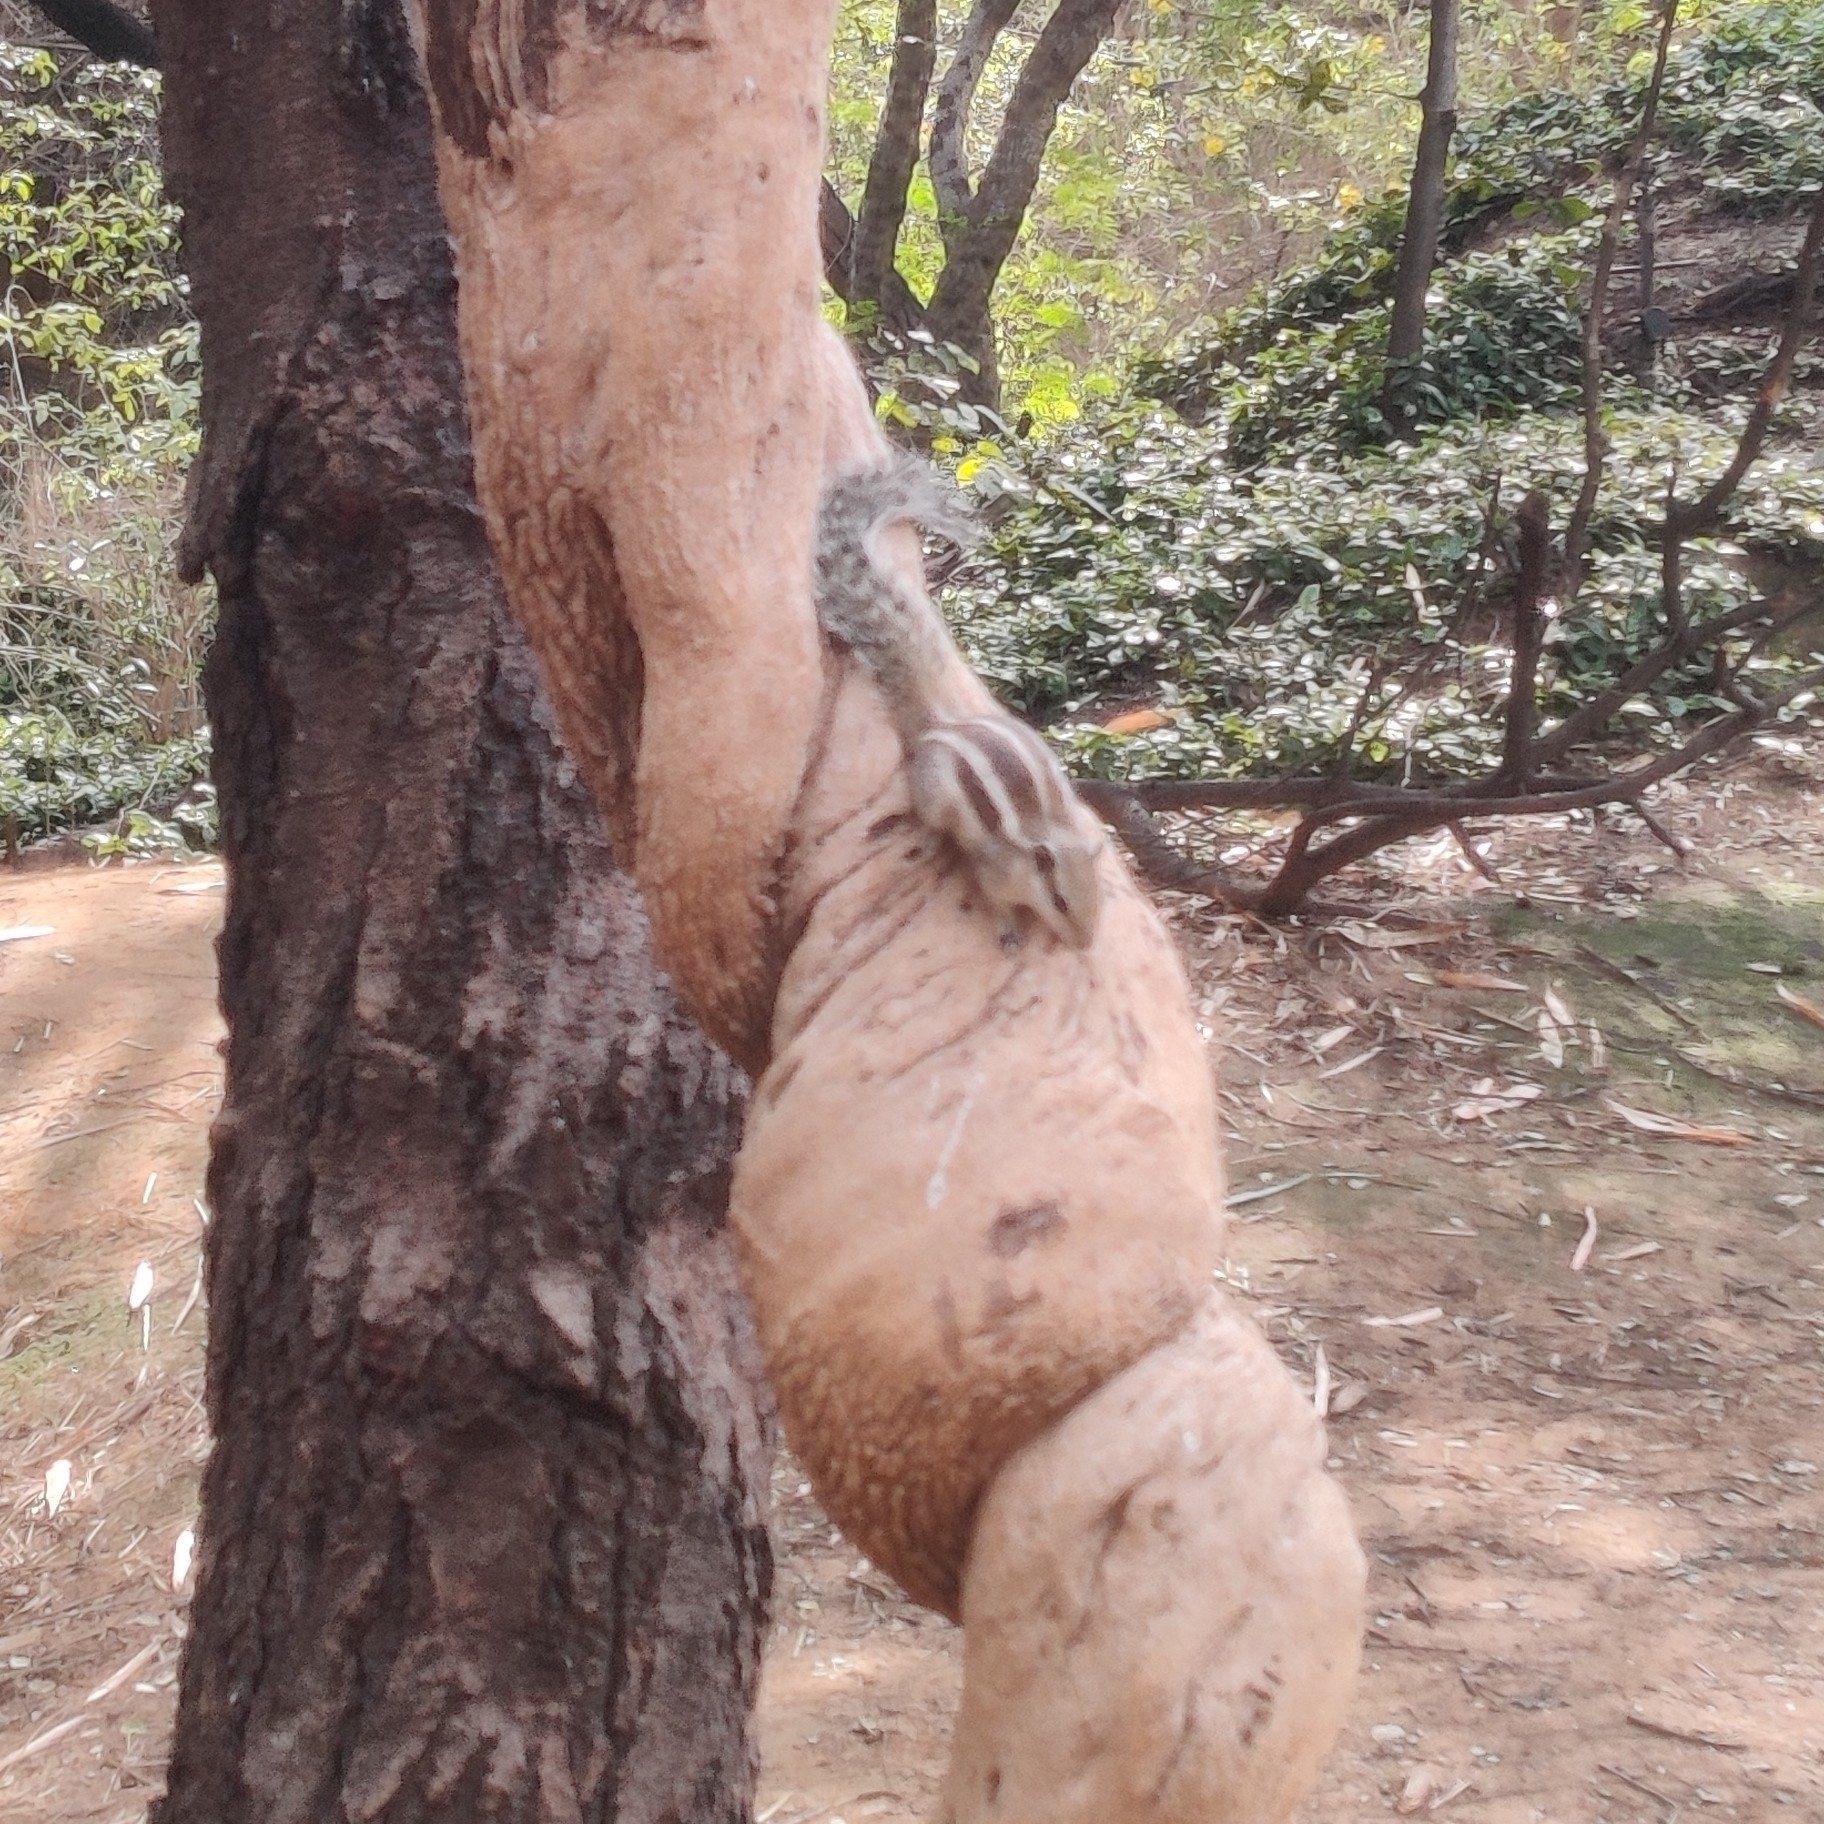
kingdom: Animalia
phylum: Chordata
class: Mammalia
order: Rodentia
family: Sciuridae
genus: Funambulus
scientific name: Funambulus pennantii
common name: Northern palm squirrel
